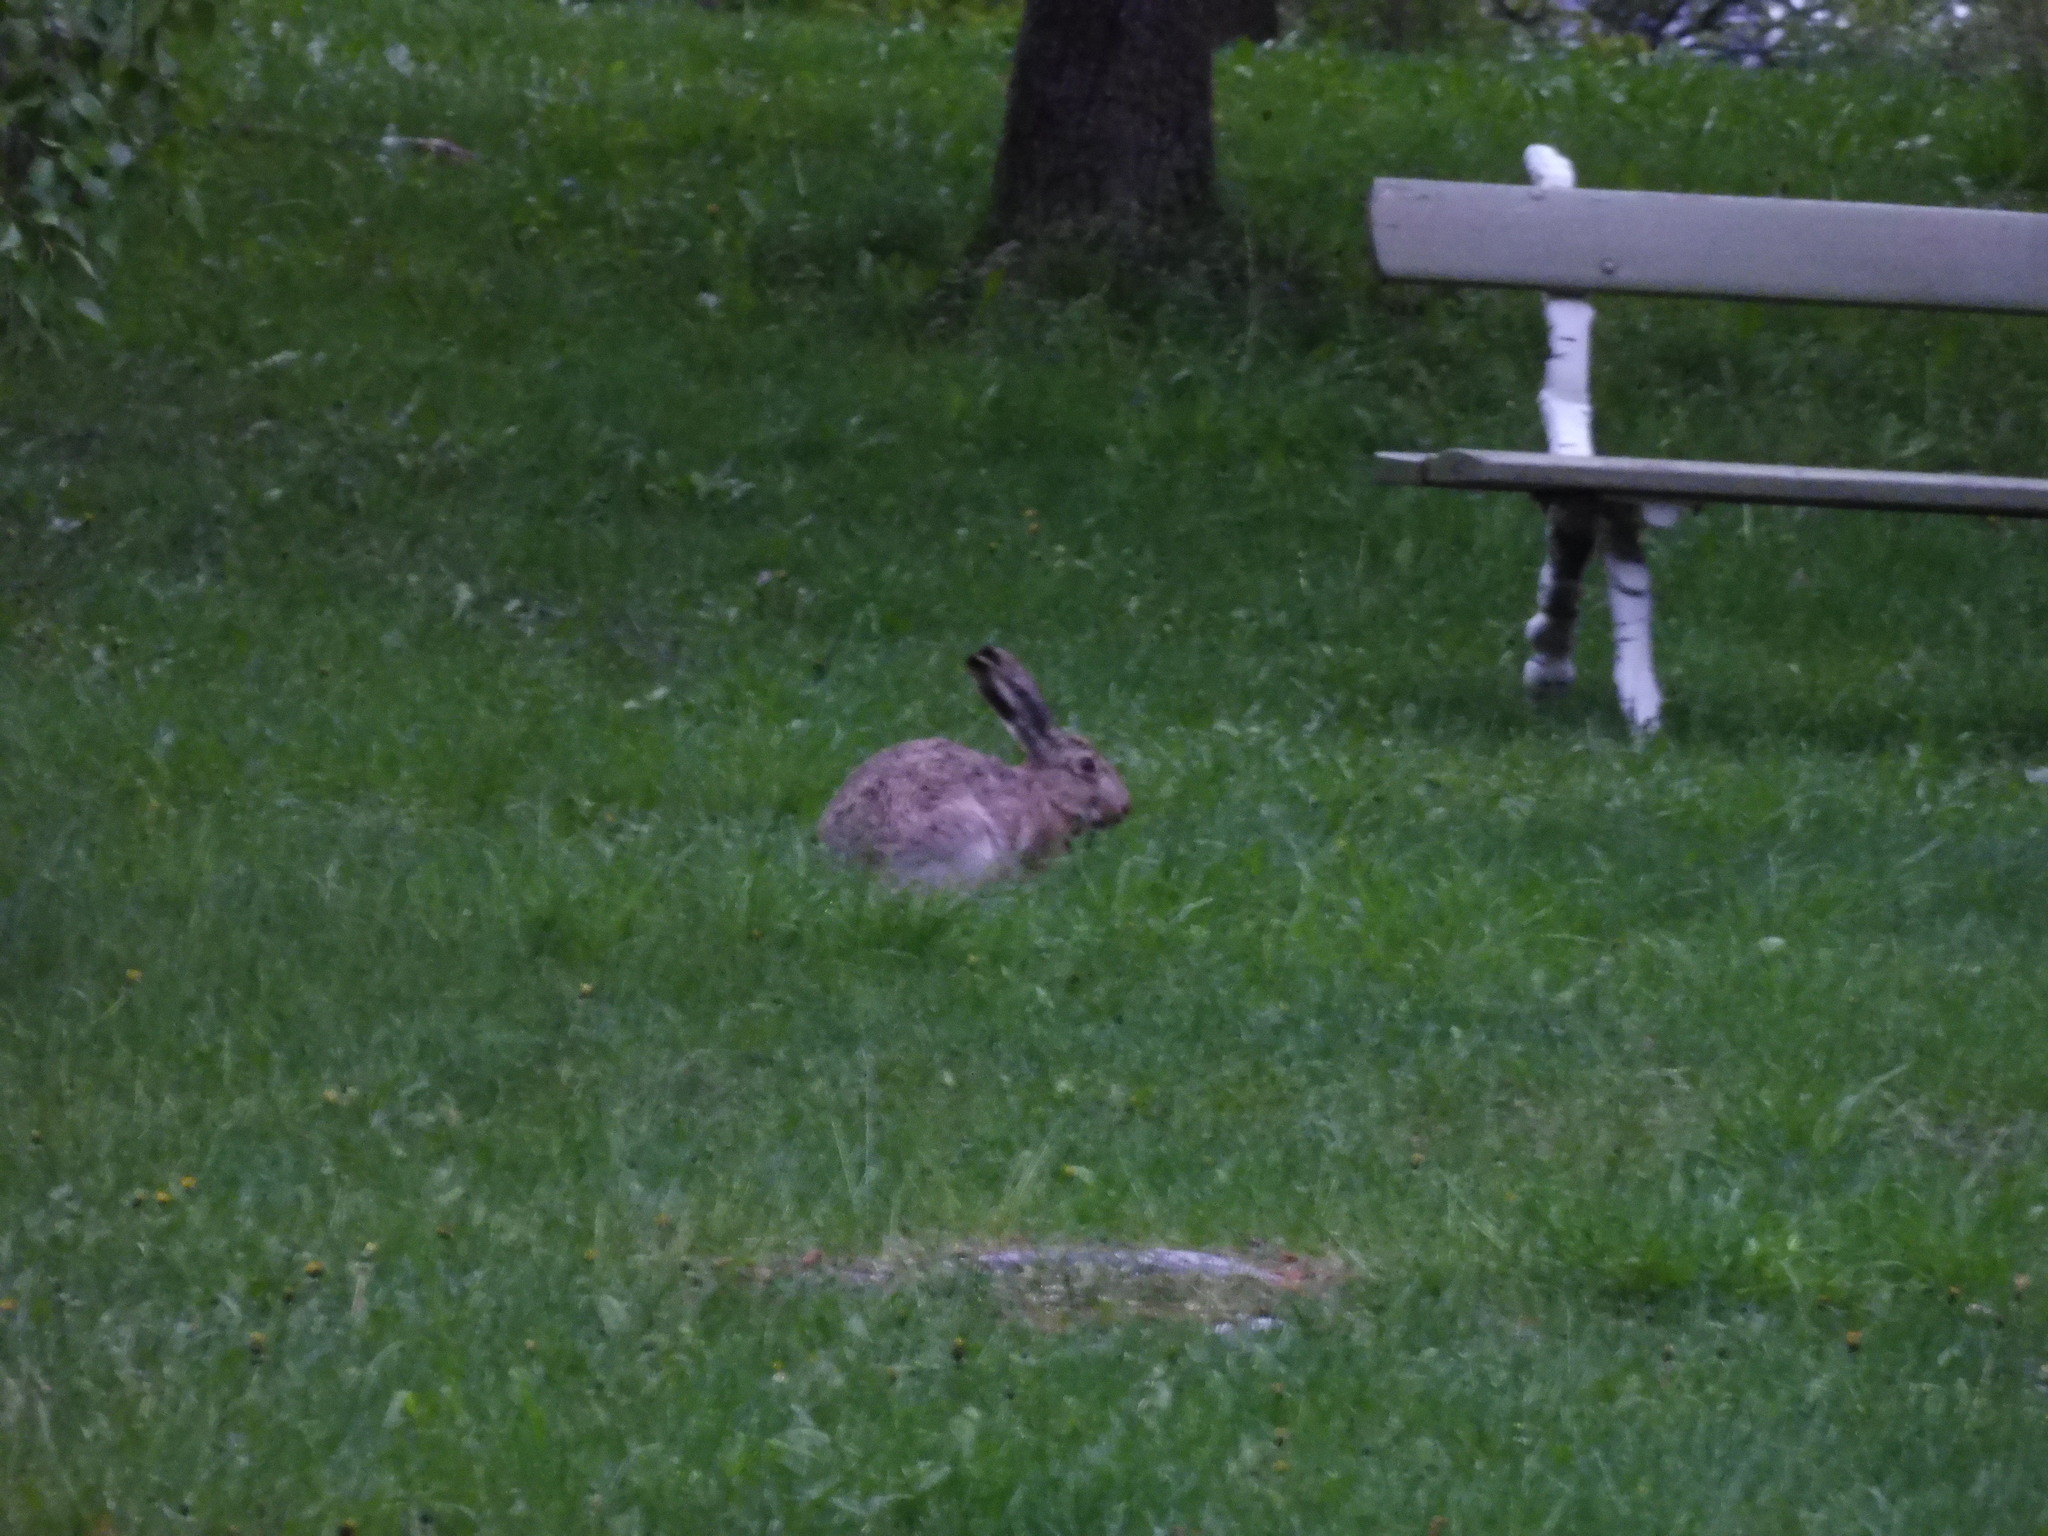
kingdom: Animalia
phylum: Chordata
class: Mammalia
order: Lagomorpha
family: Leporidae
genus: Lepus
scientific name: Lepus europaeus
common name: European hare
